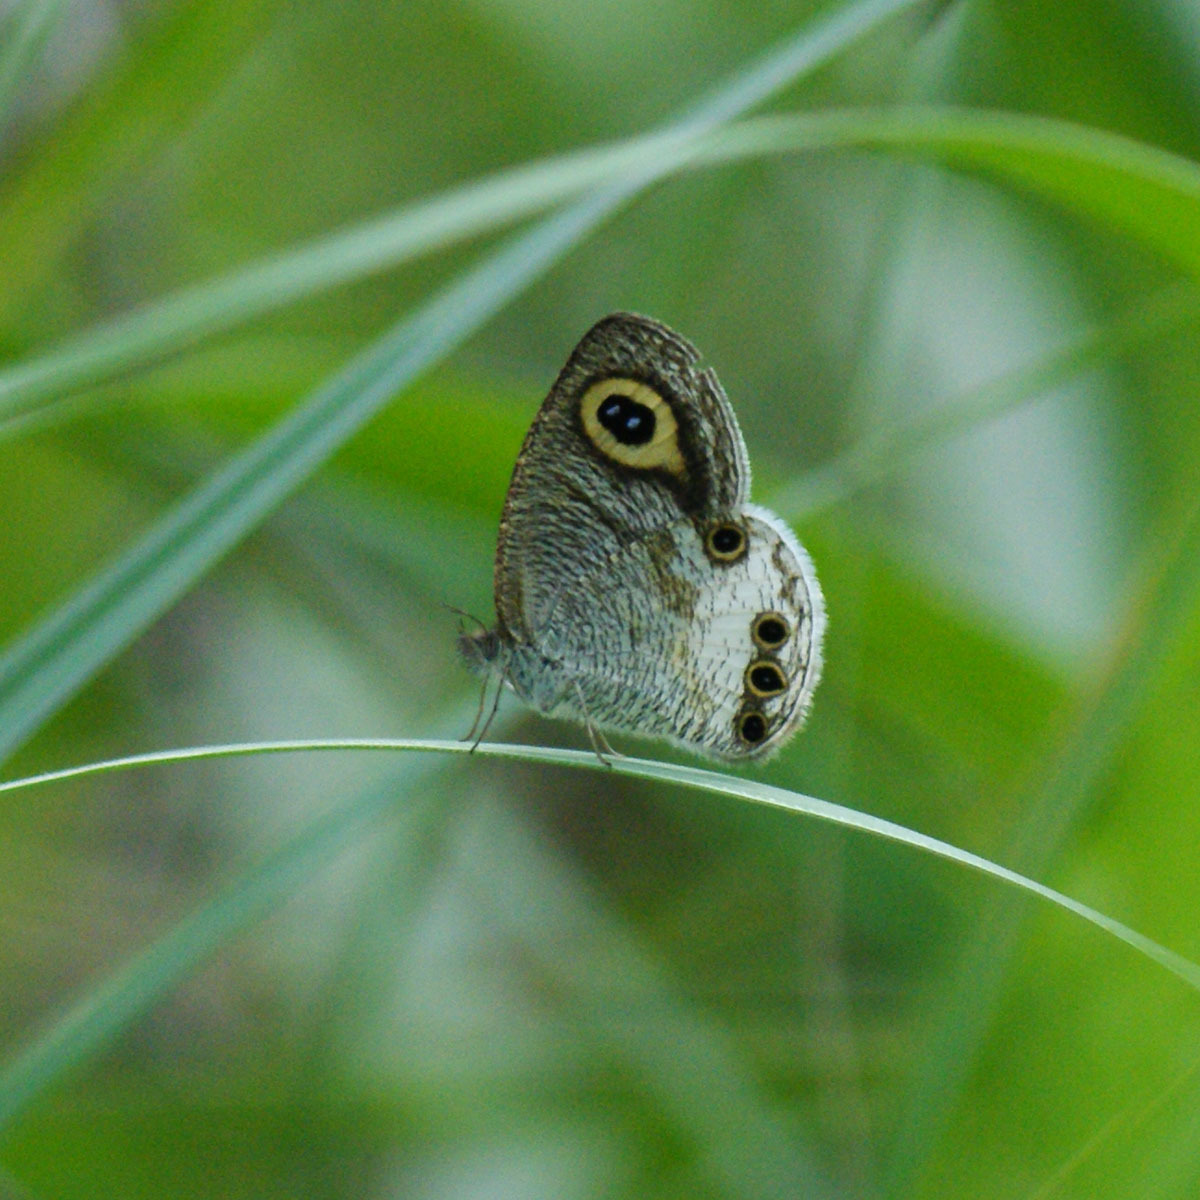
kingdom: Animalia
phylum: Arthropoda
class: Insecta
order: Lepidoptera
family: Nymphalidae
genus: Ypthima
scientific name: Ypthima ceylonica
